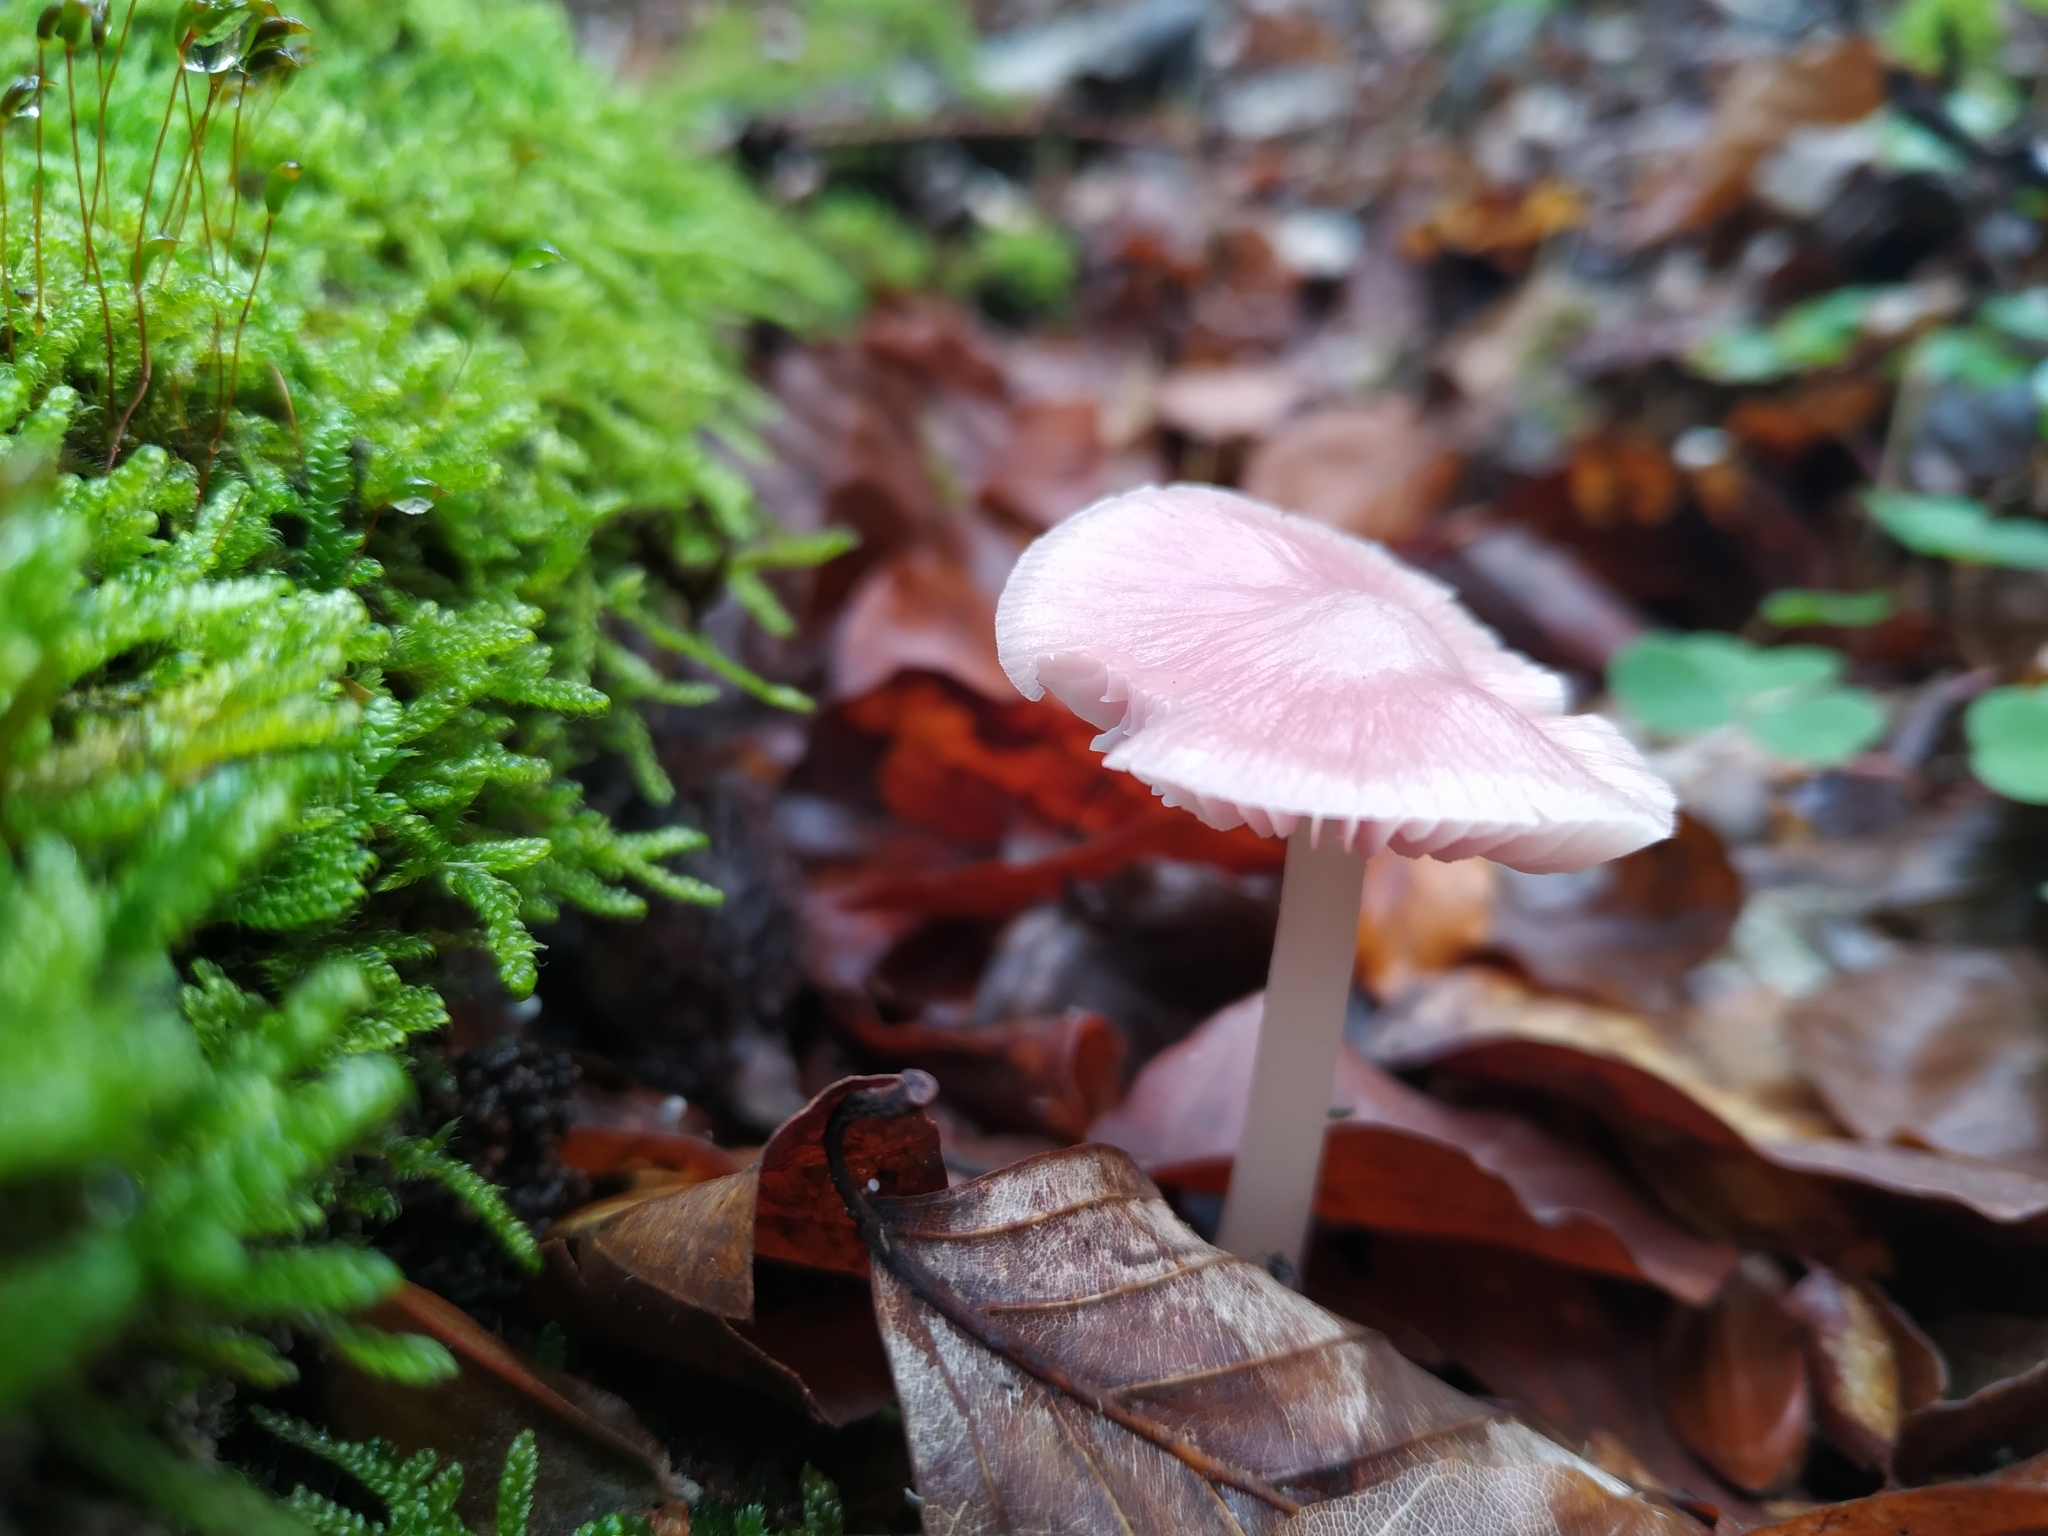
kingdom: Fungi
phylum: Basidiomycota
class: Agaricomycetes
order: Agaricales
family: Mycenaceae
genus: Mycena
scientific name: Mycena rosea
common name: Rosy bonnet
